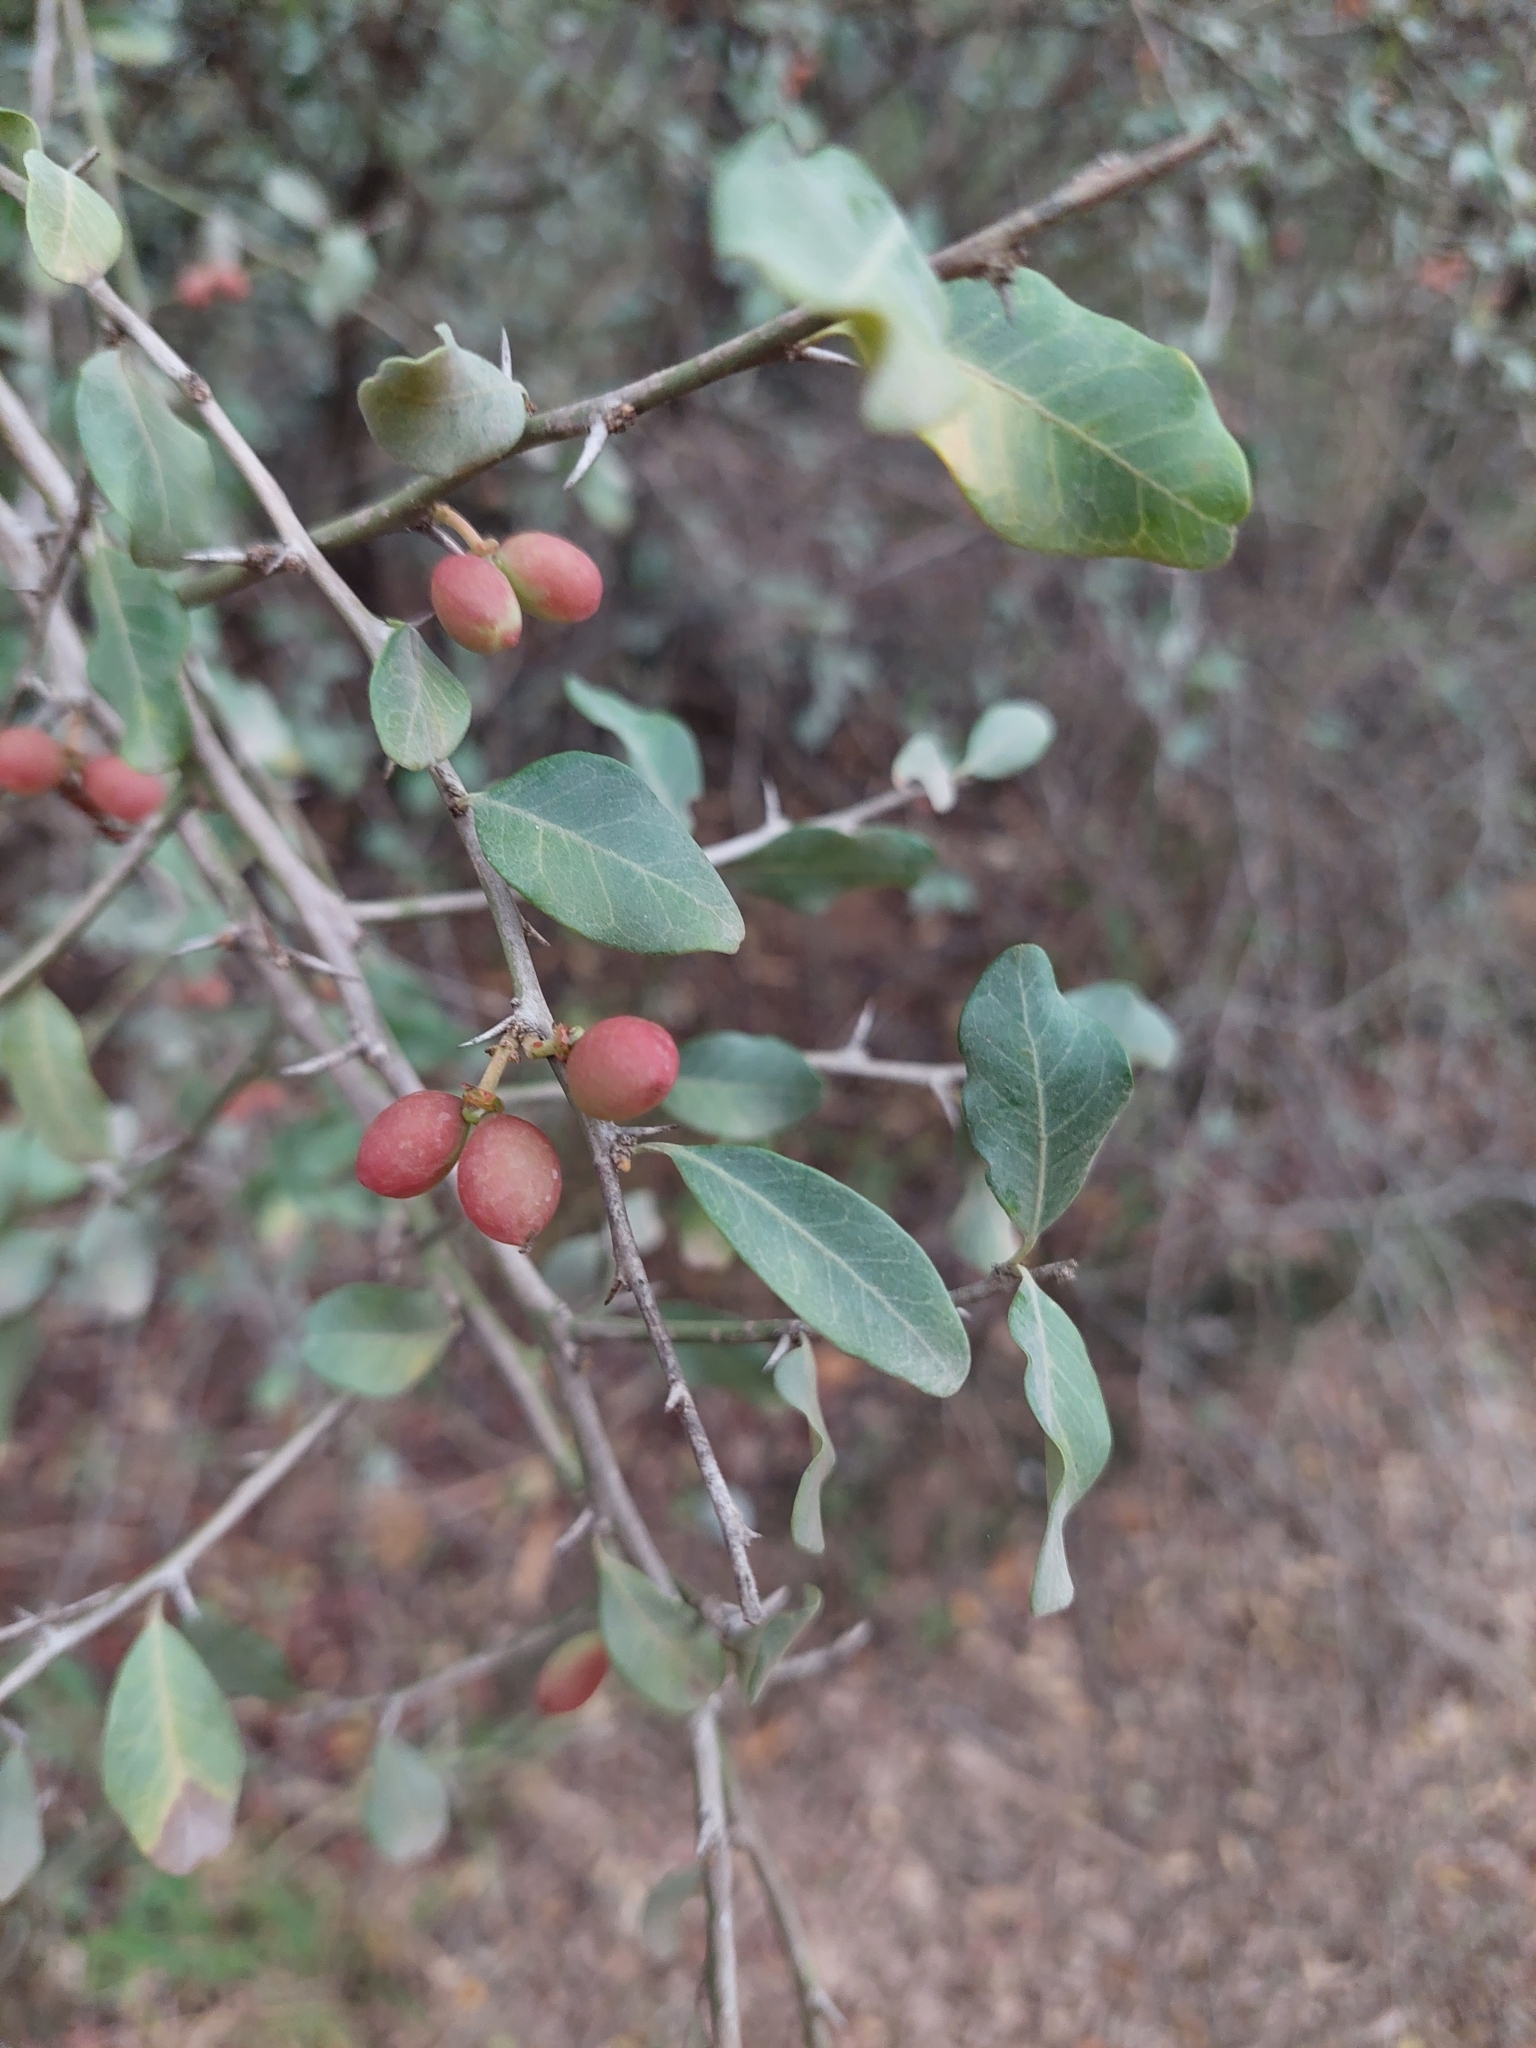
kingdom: Plantae
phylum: Tracheophyta
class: Magnoliopsida
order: Sapindales
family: Simaroubaceae
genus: Castela
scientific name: Castela coccinea
